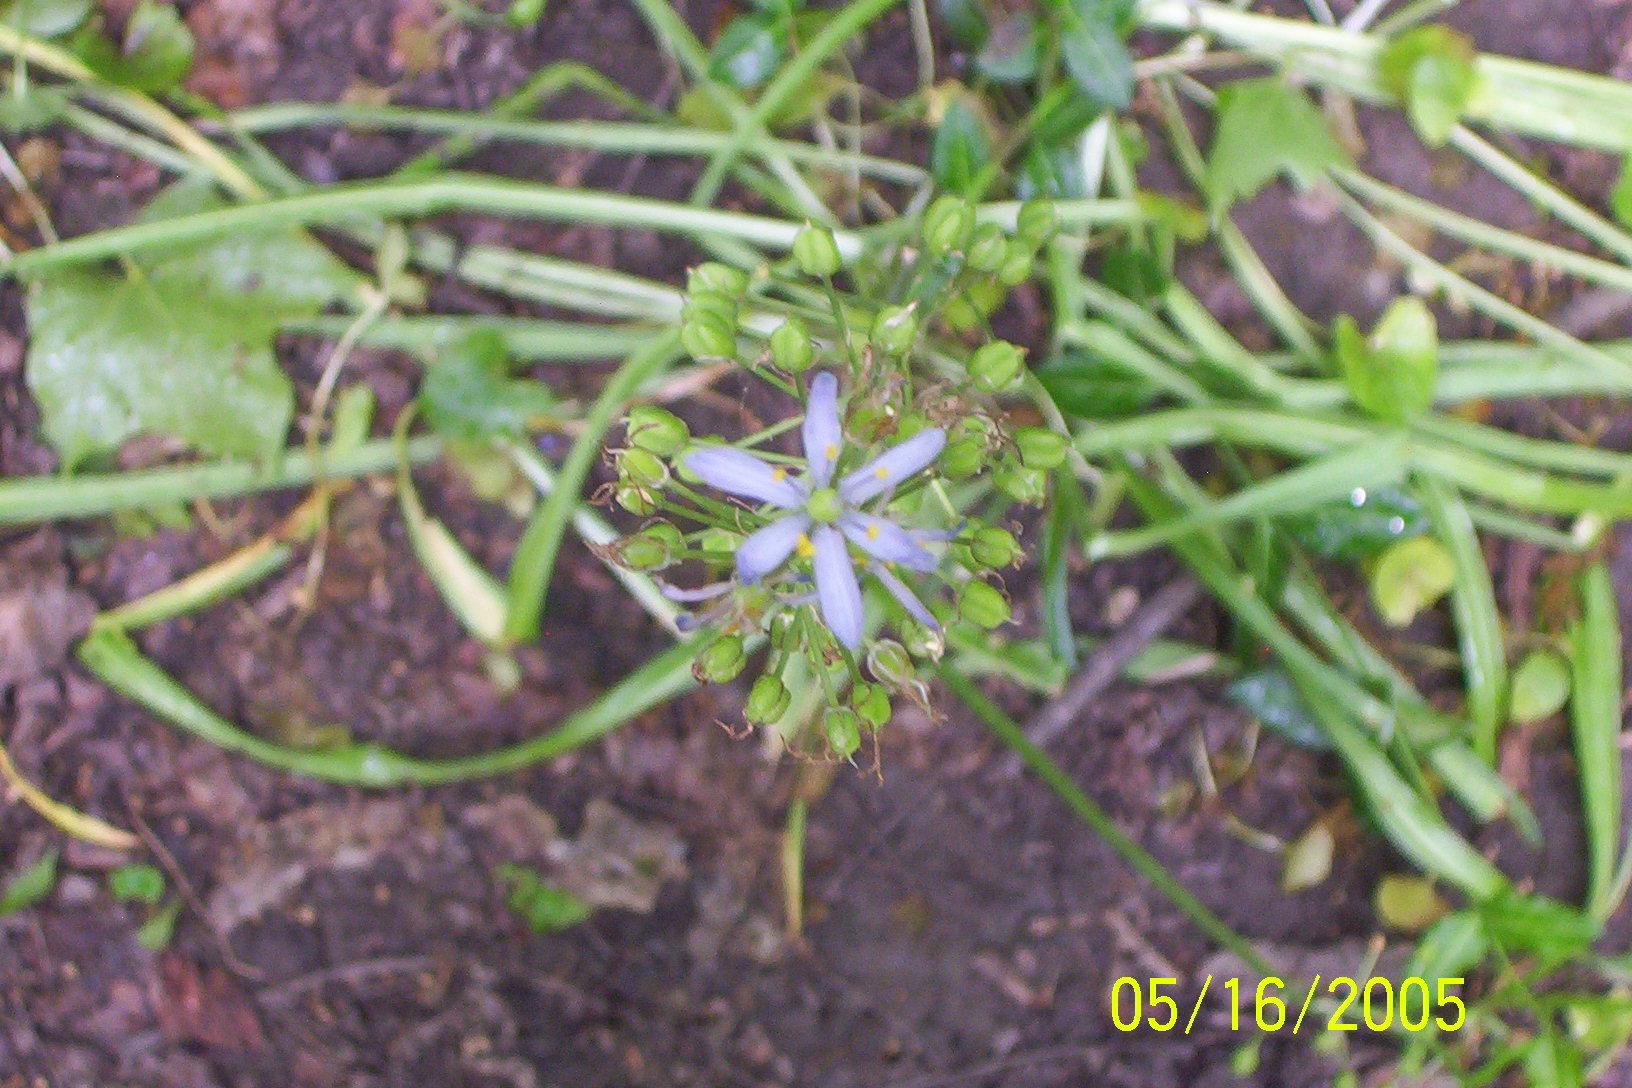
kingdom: Plantae
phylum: Tracheophyta
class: Liliopsida
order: Asparagales
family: Asparagaceae
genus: Camassia
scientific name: Camassia scilloides
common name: Wild hyacinth
